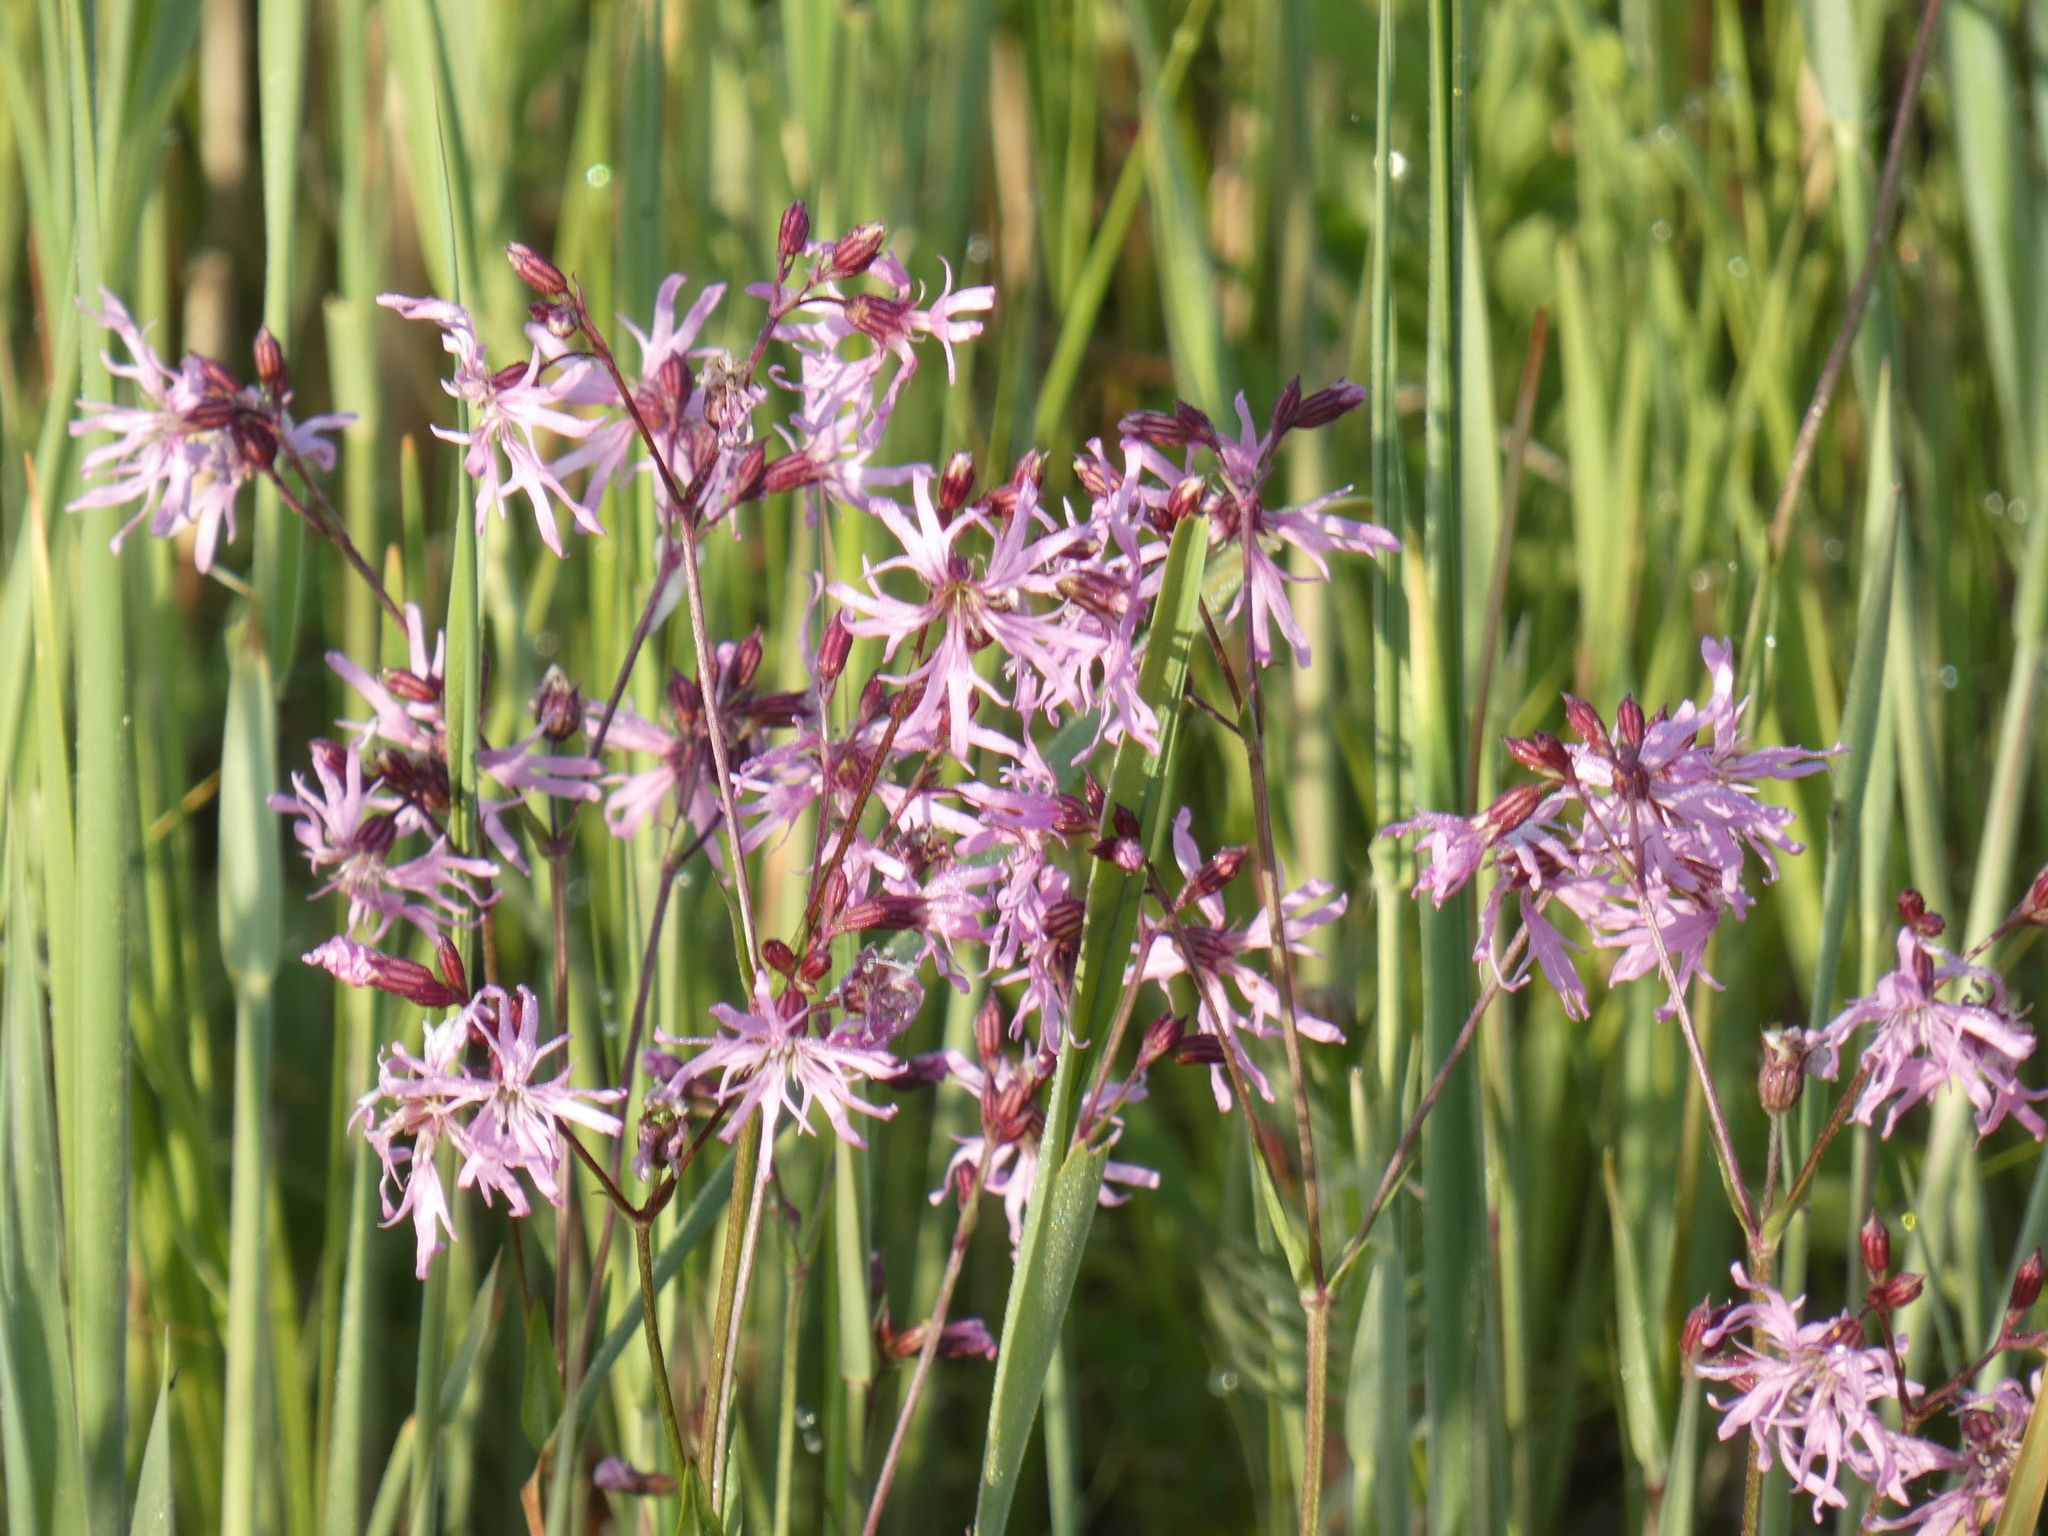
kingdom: Plantae
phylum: Tracheophyta
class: Magnoliopsida
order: Caryophyllales
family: Caryophyllaceae
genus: Silene
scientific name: Silene flos-cuculi
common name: Ragged-robin
